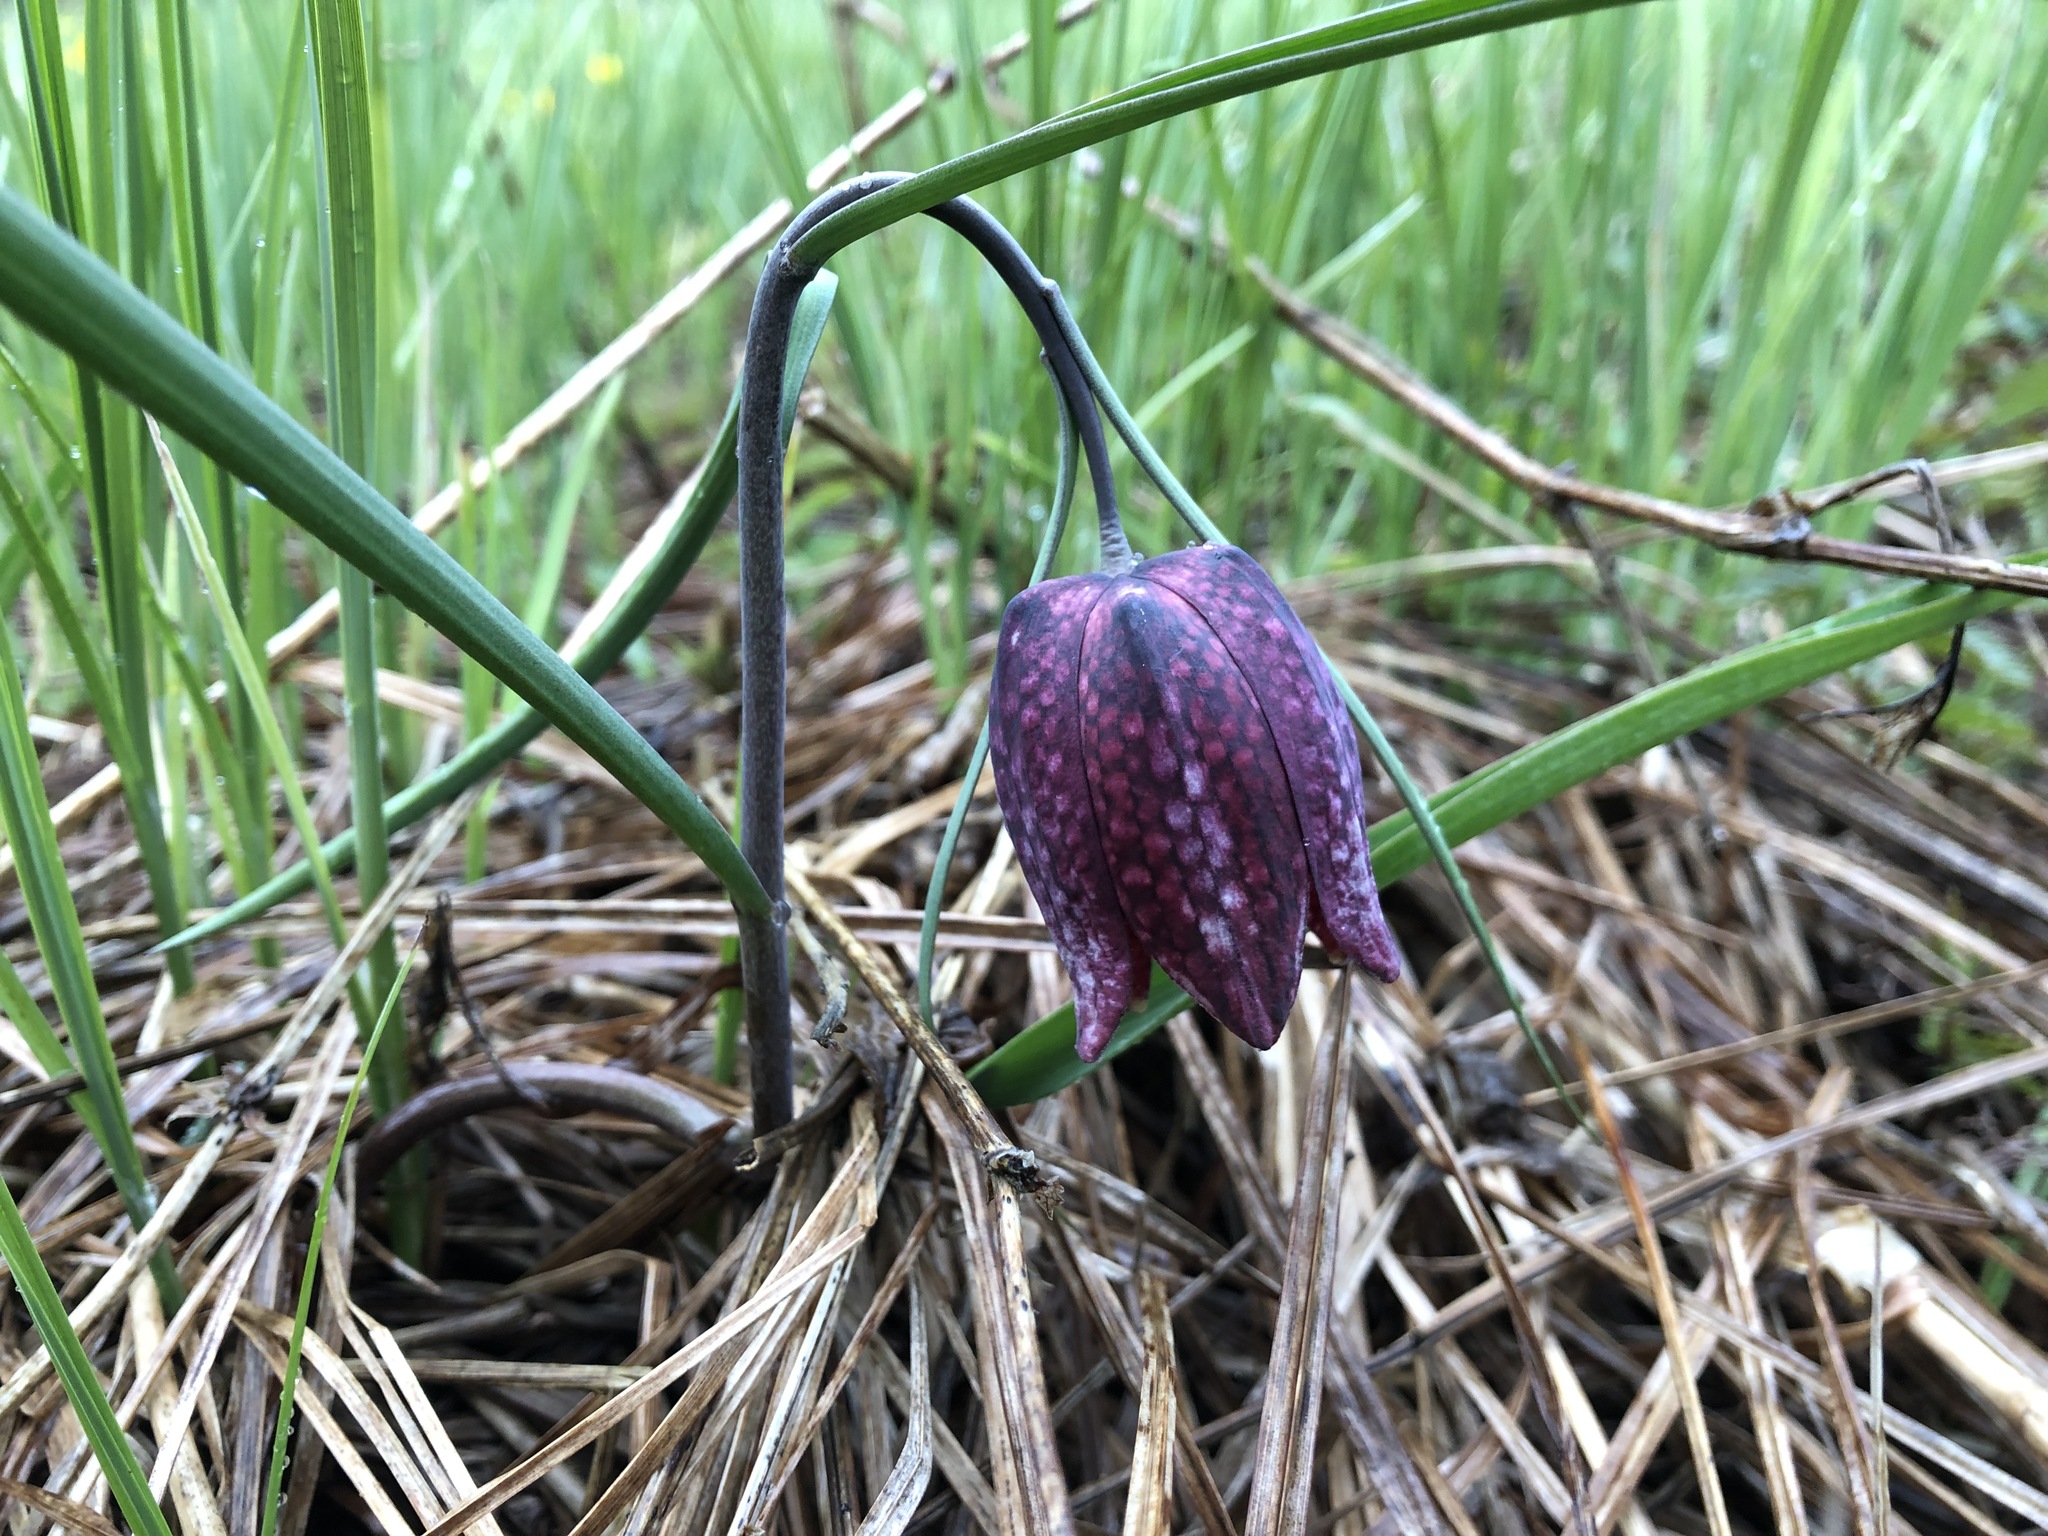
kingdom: Plantae
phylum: Tracheophyta
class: Liliopsida
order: Liliales
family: Liliaceae
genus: Fritillaria
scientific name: Fritillaria meleagris
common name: Fritillary
